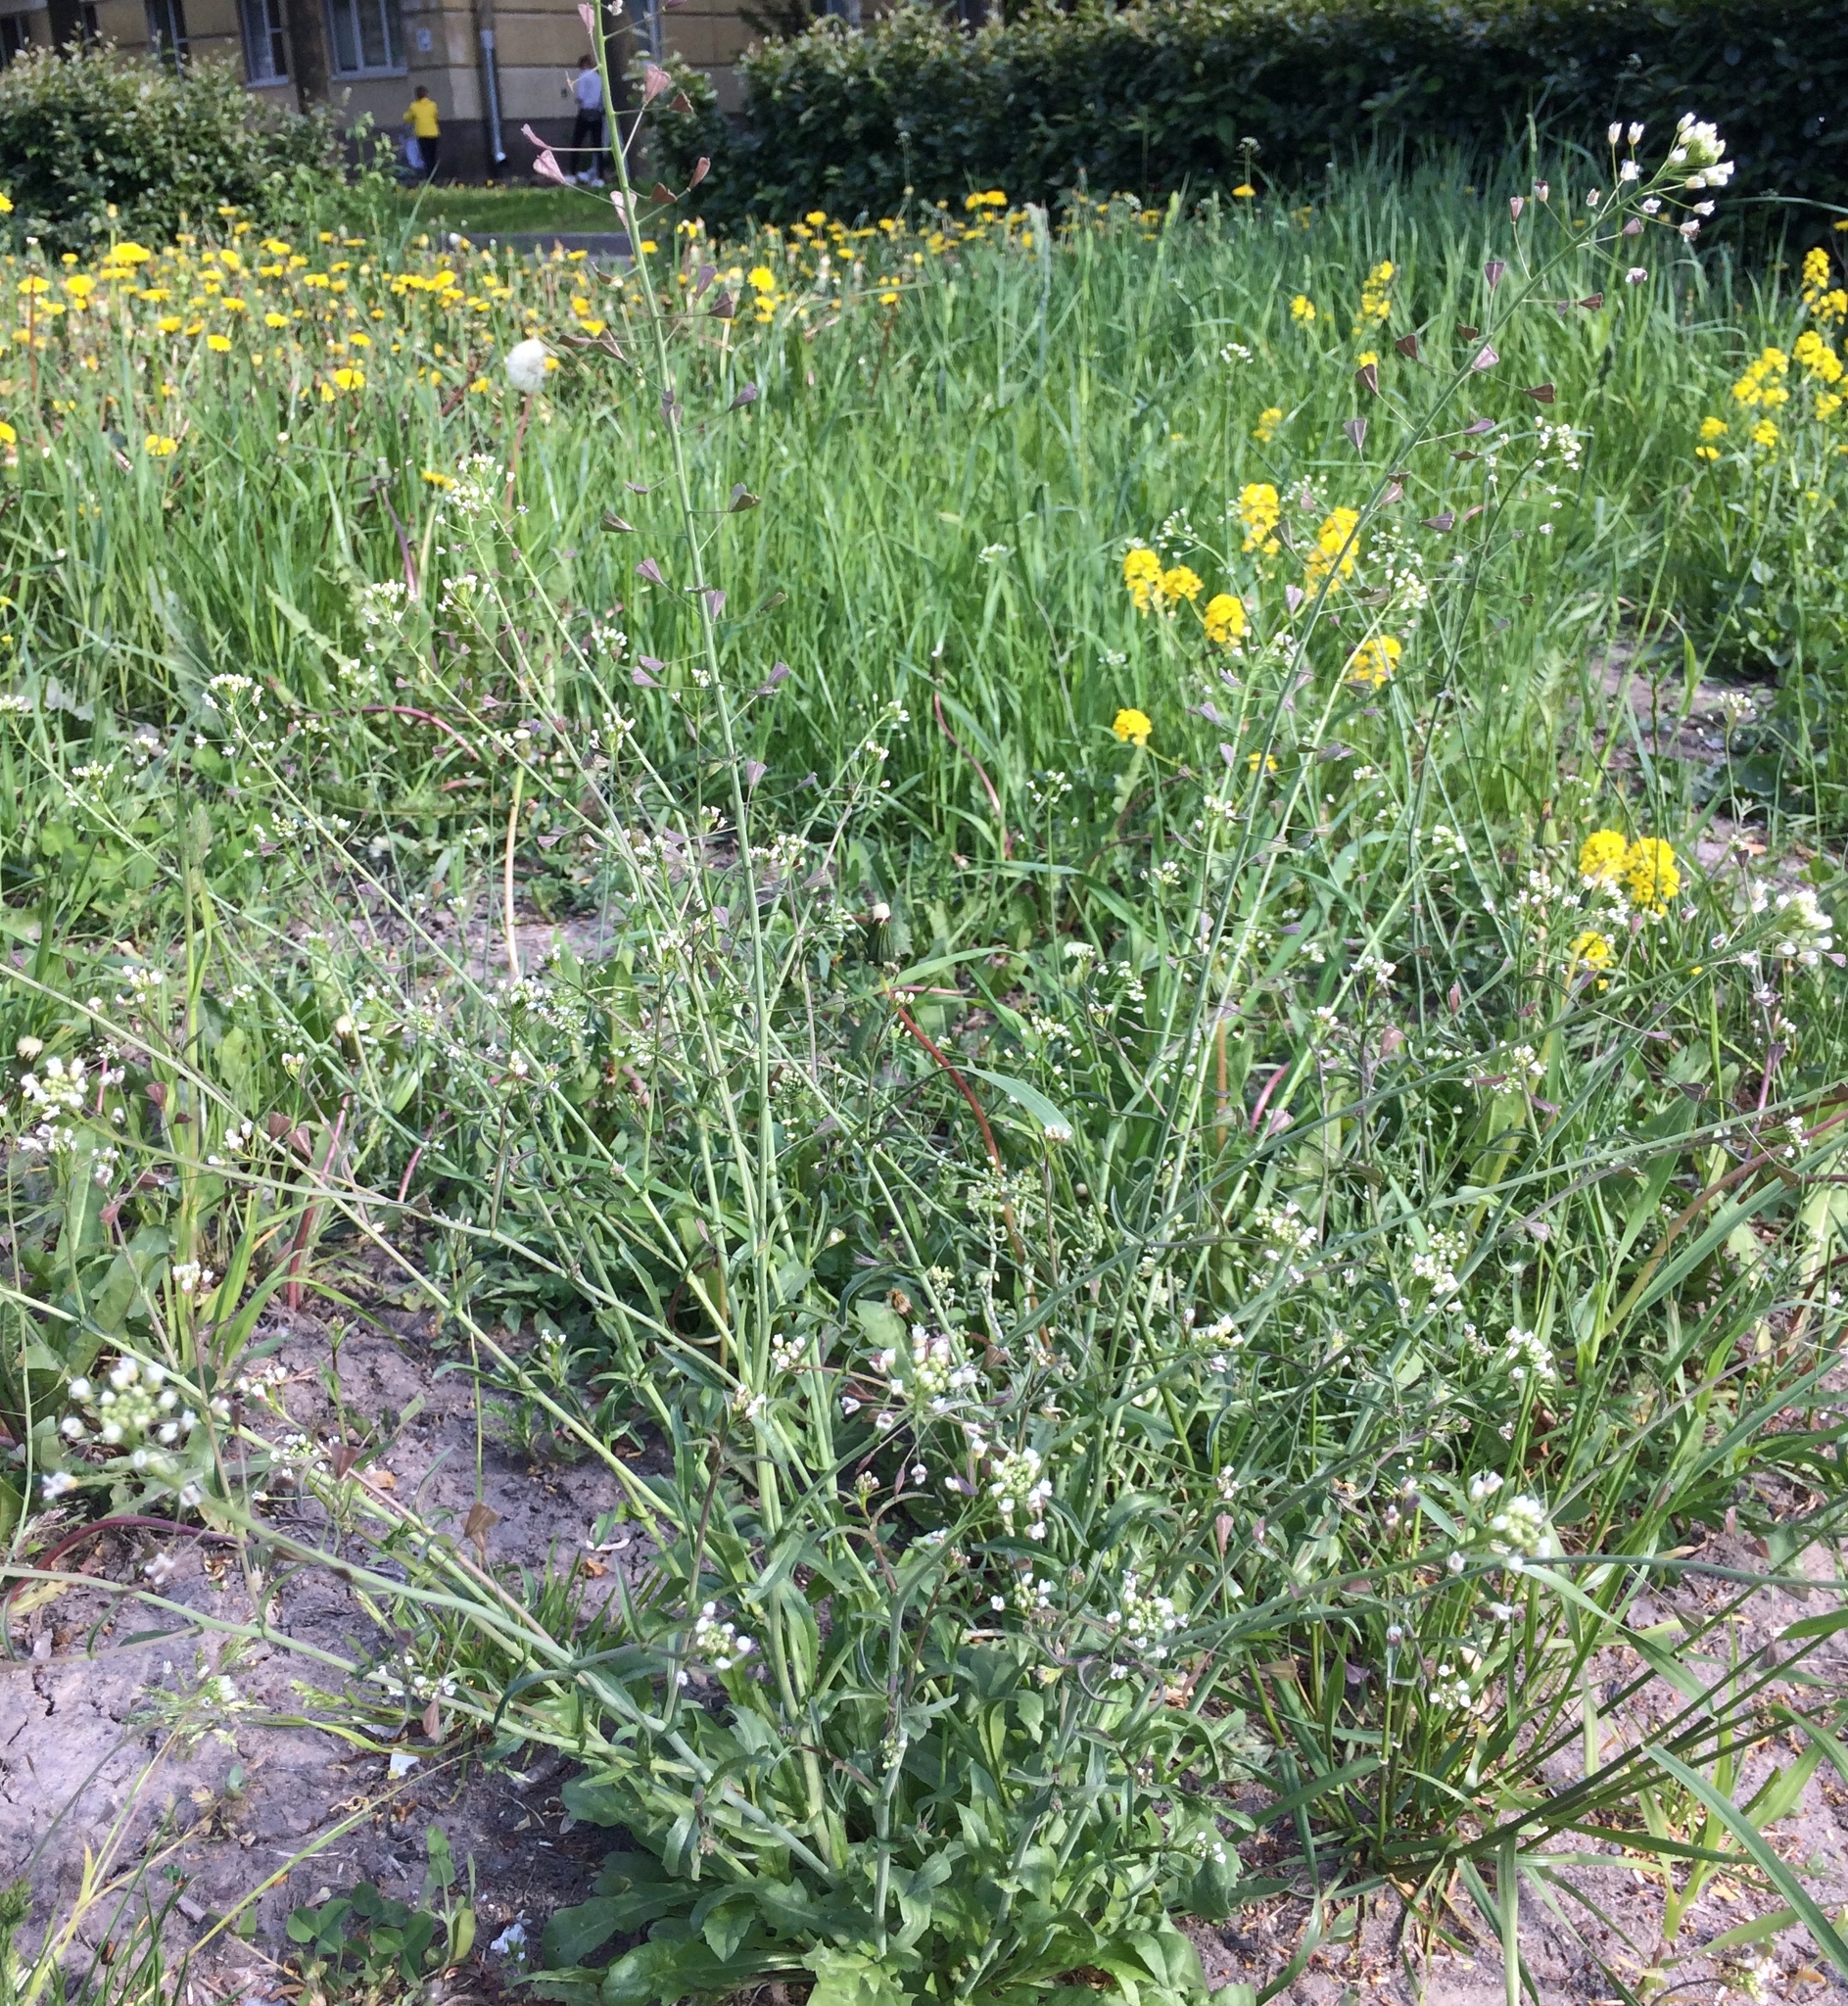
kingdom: Plantae
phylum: Tracheophyta
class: Magnoliopsida
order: Brassicales
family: Brassicaceae
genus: Capsella
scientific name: Capsella bursa-pastoris
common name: Shepherd's purse
